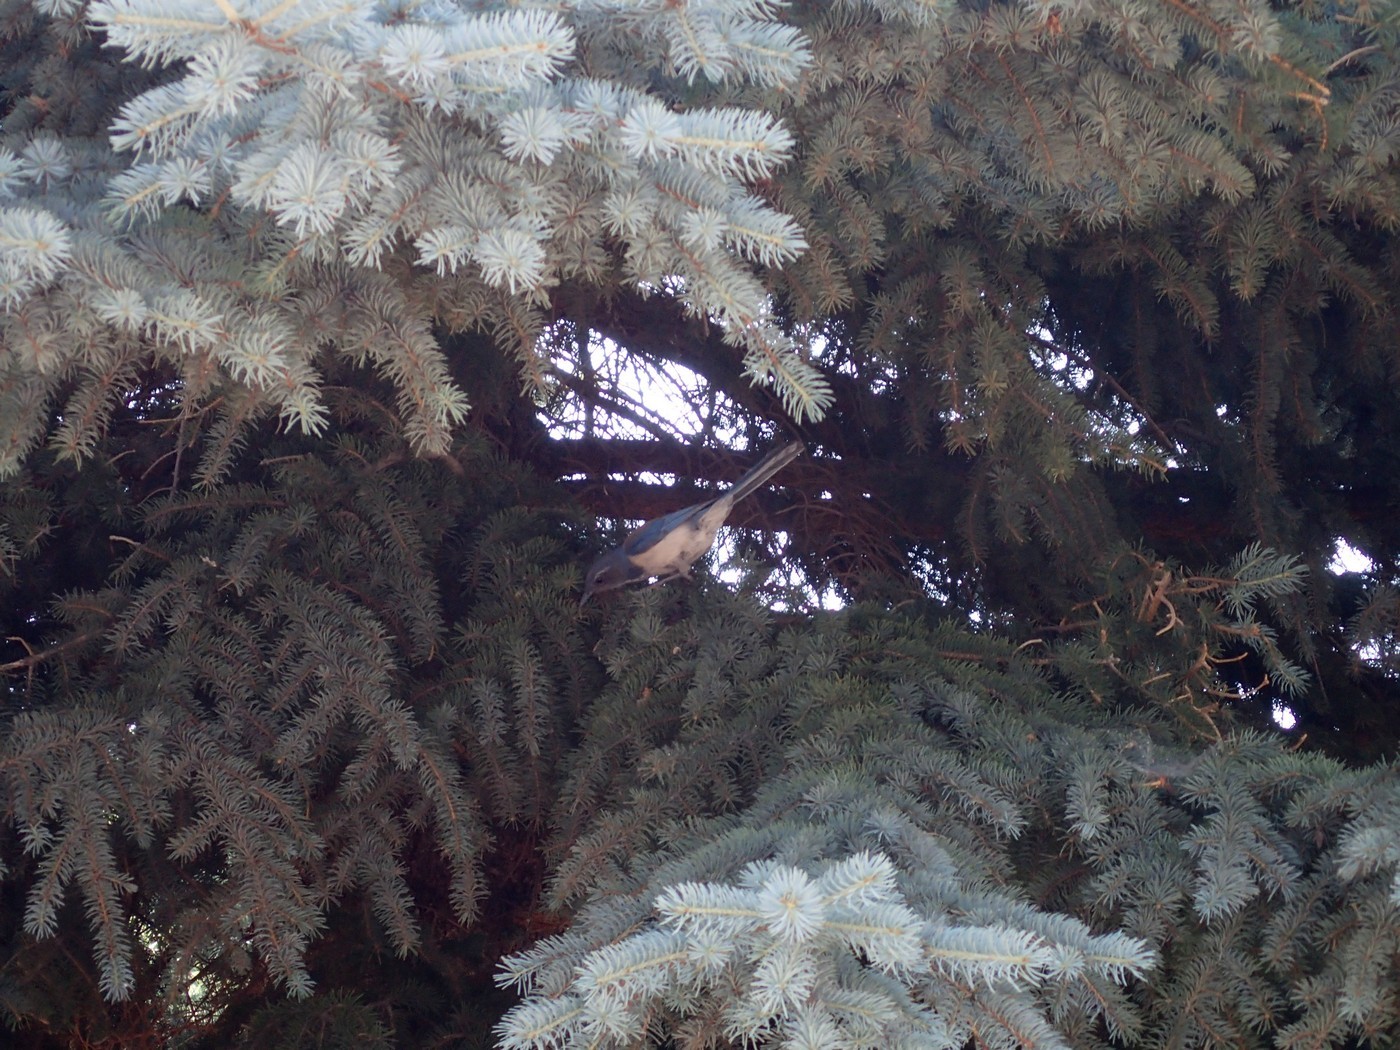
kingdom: Animalia
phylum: Chordata
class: Aves
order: Passeriformes
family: Corvidae
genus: Aphelocoma
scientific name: Aphelocoma californica
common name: California scrub-jay
